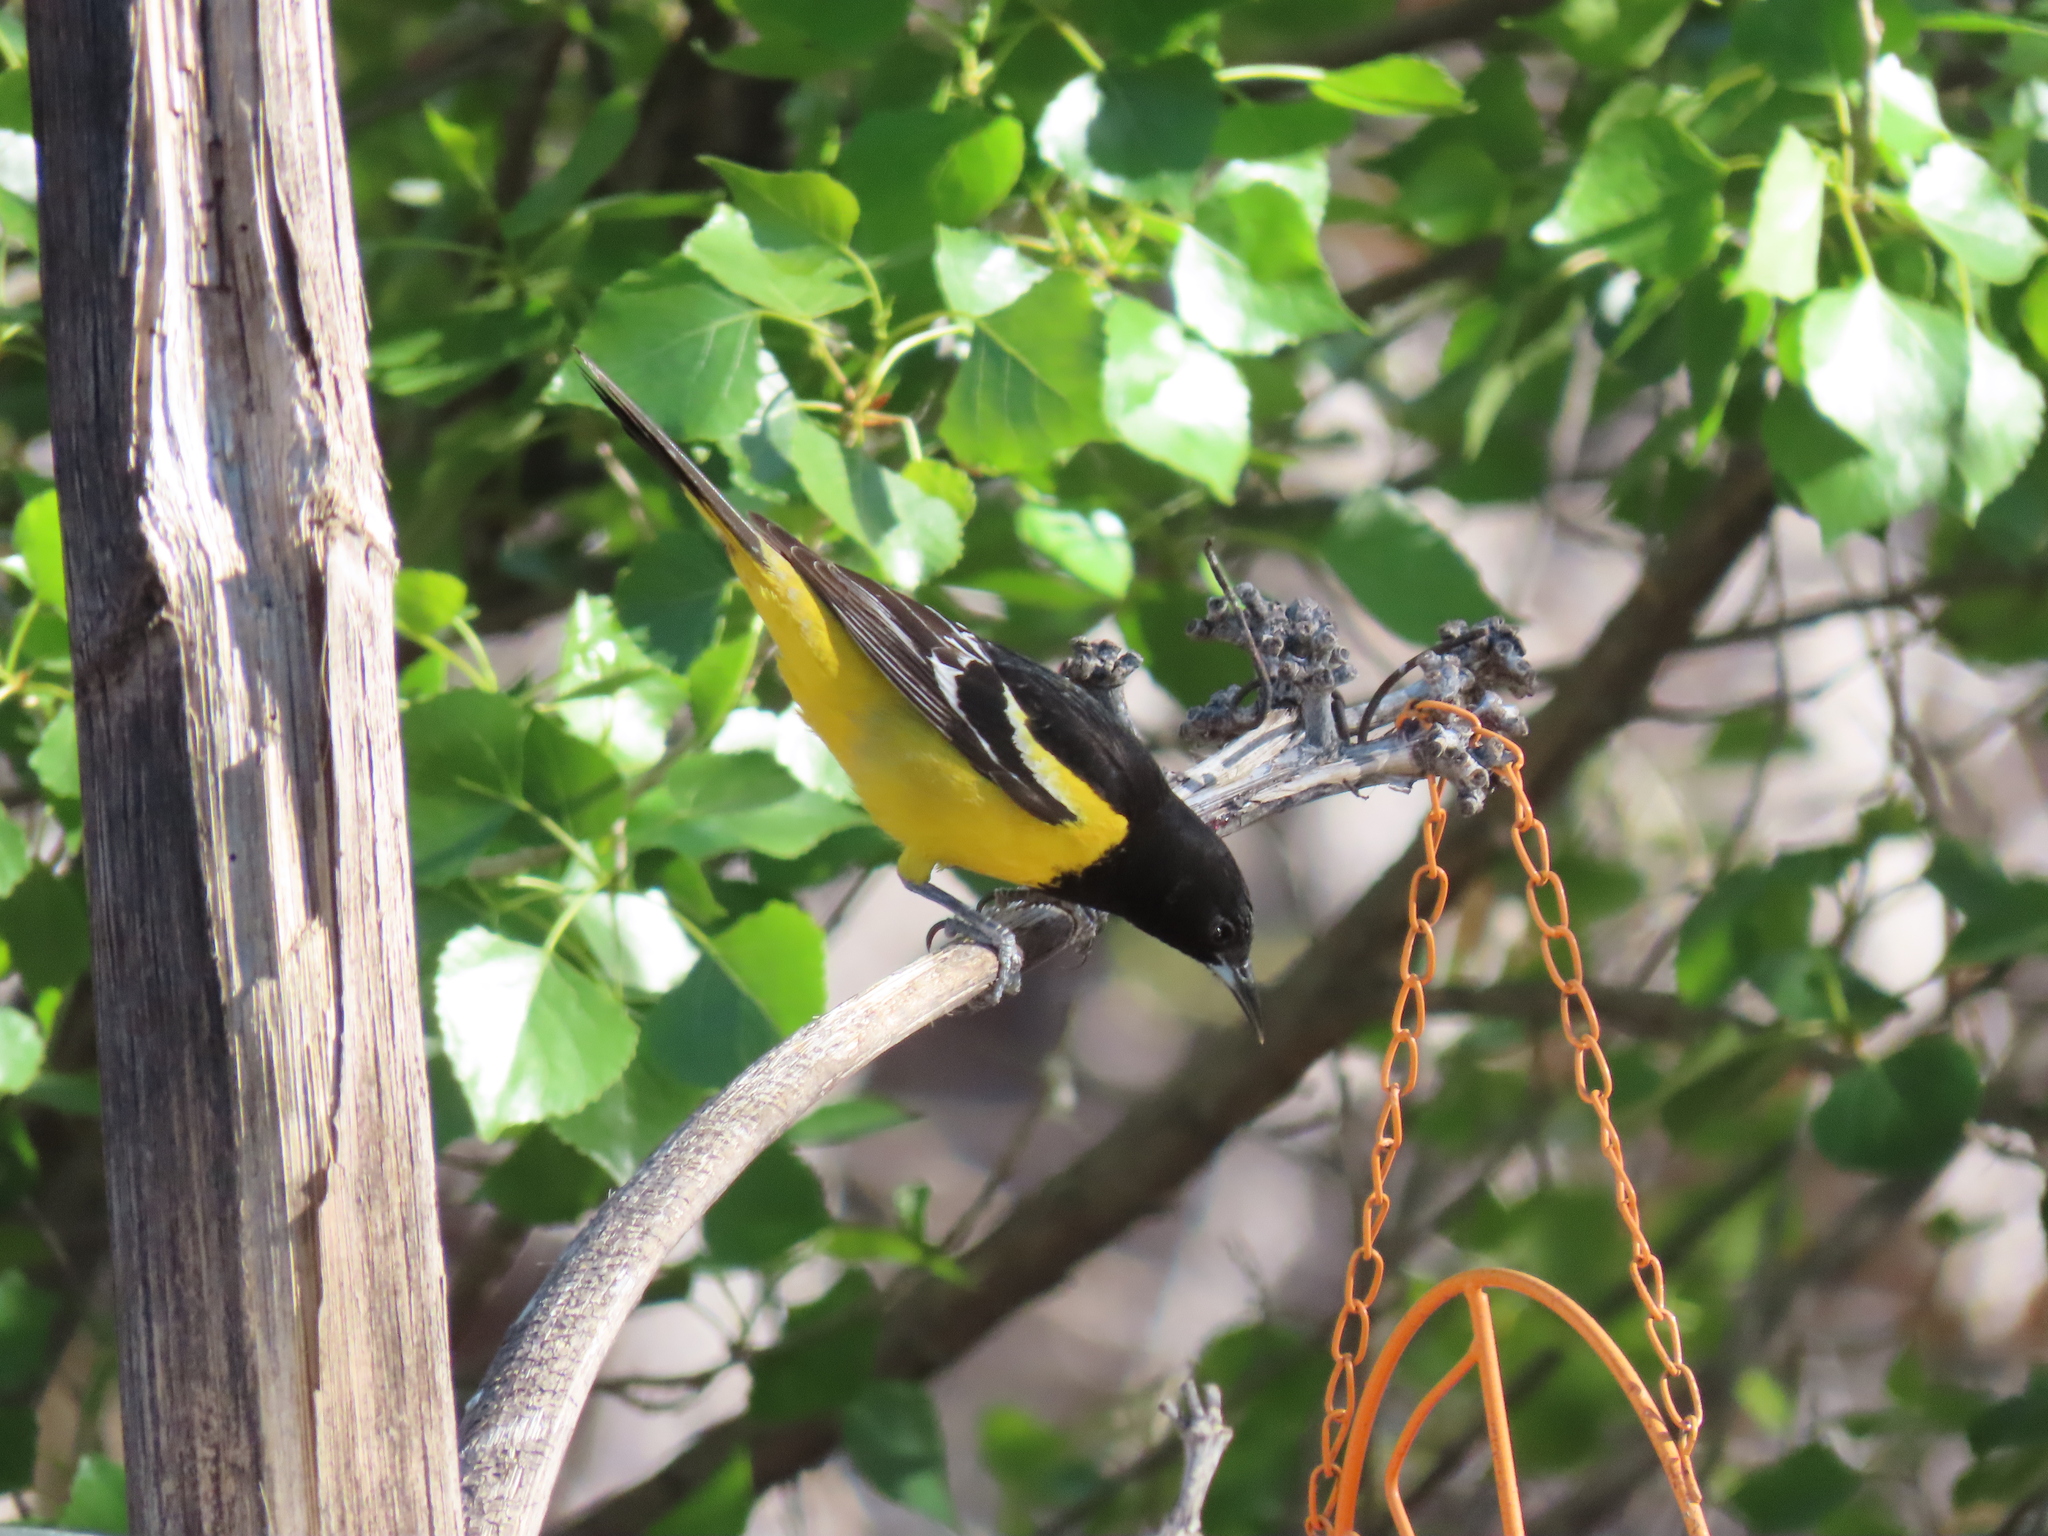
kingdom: Animalia
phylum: Chordata
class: Aves
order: Passeriformes
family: Icteridae
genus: Icterus
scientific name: Icterus parisorum
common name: Scott's oriole
